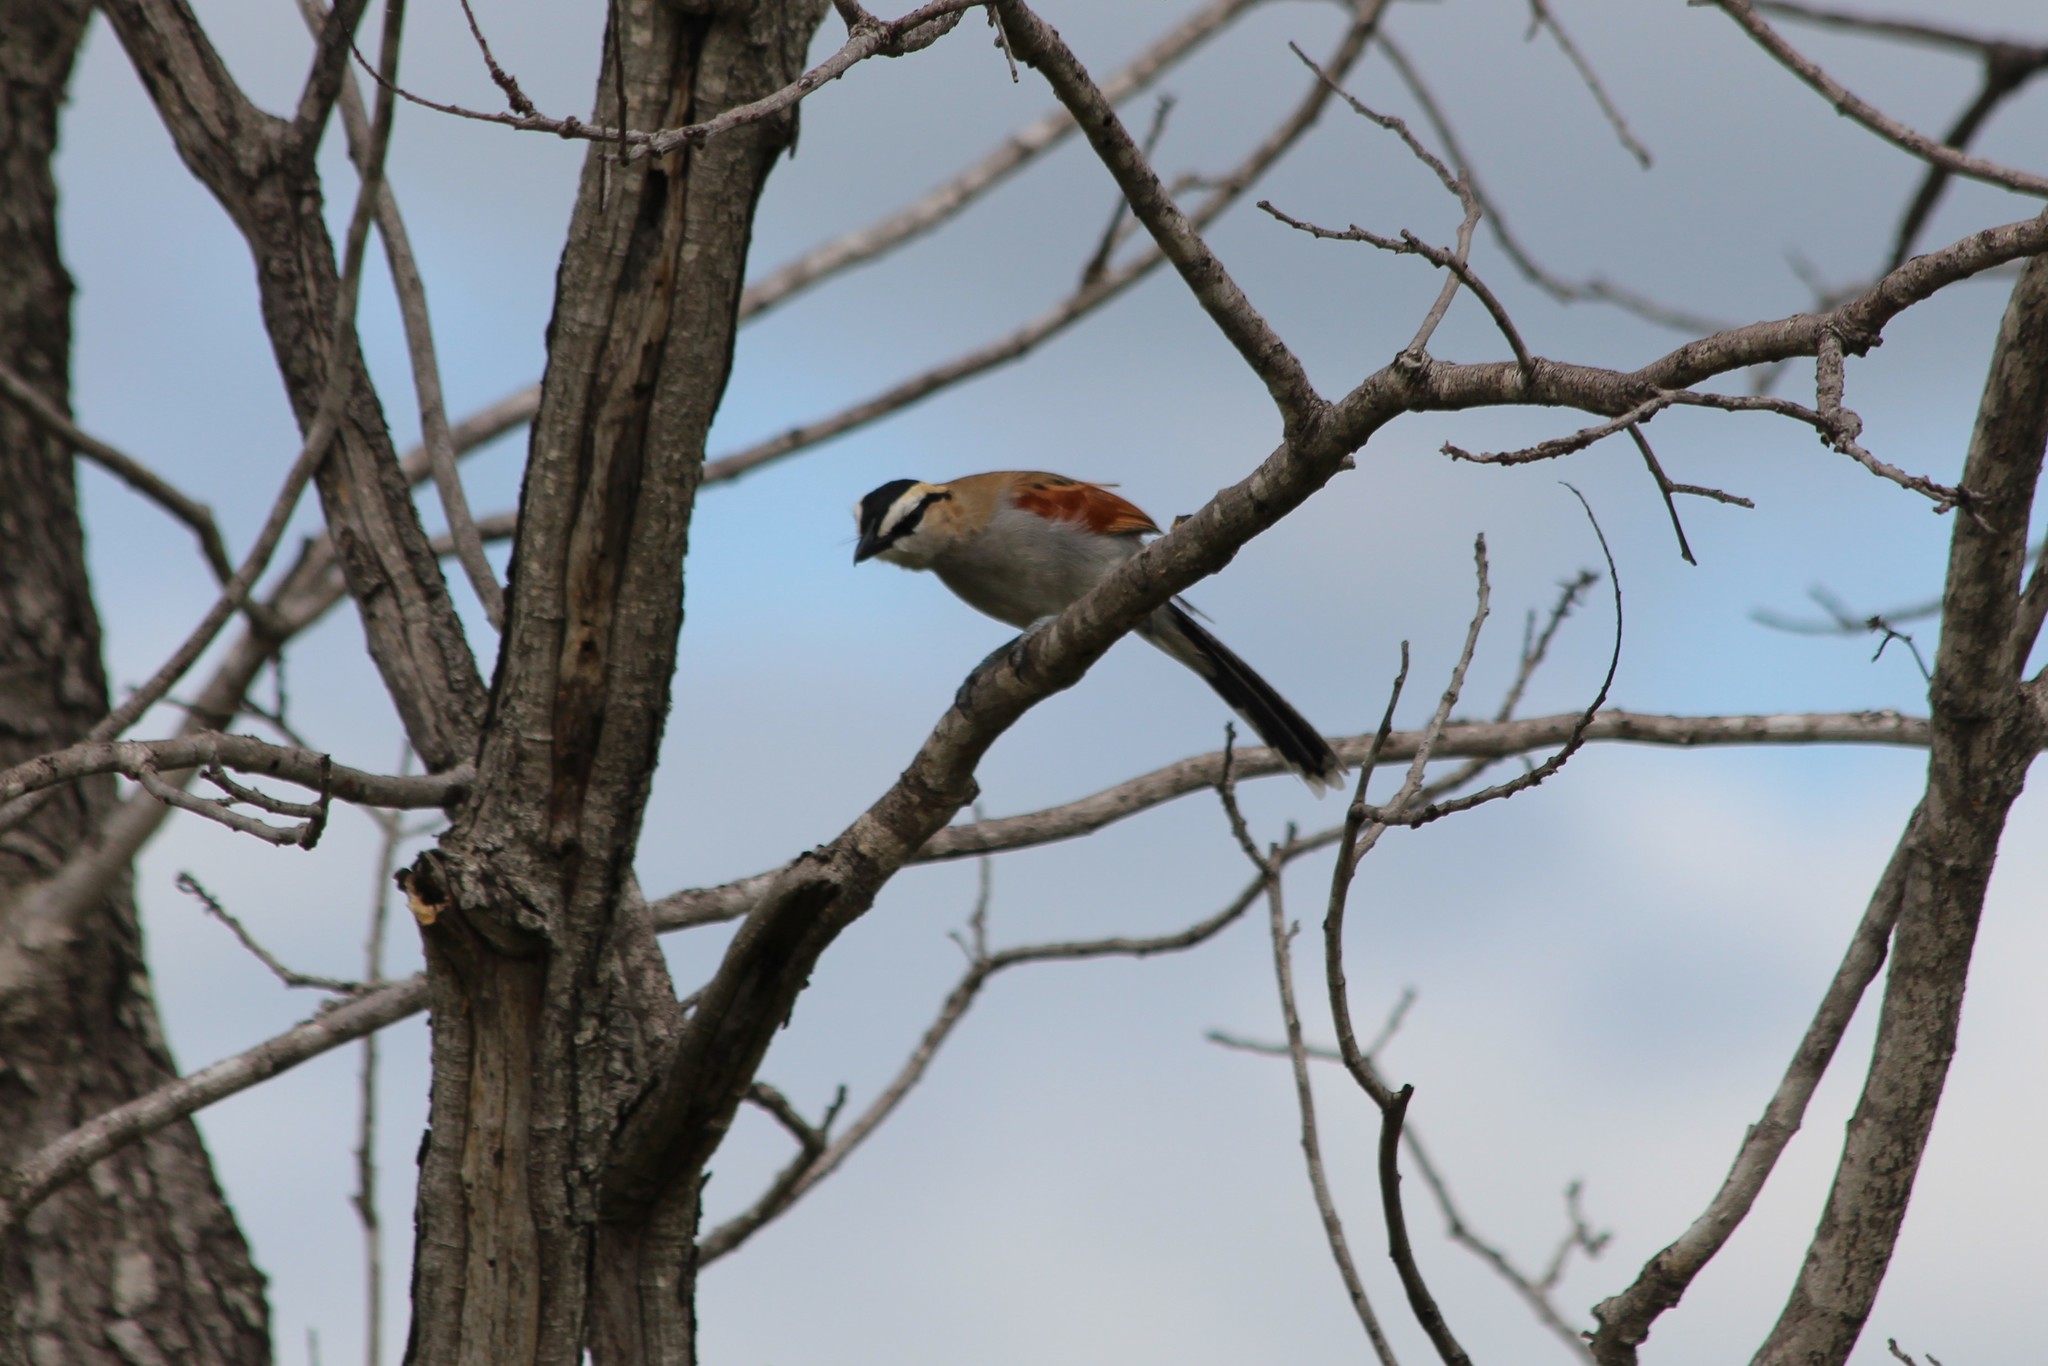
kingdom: Animalia
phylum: Chordata
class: Aves
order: Passeriformes
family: Malaconotidae
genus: Tchagra
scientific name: Tchagra senegalus
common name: Black-crowned tchagra
